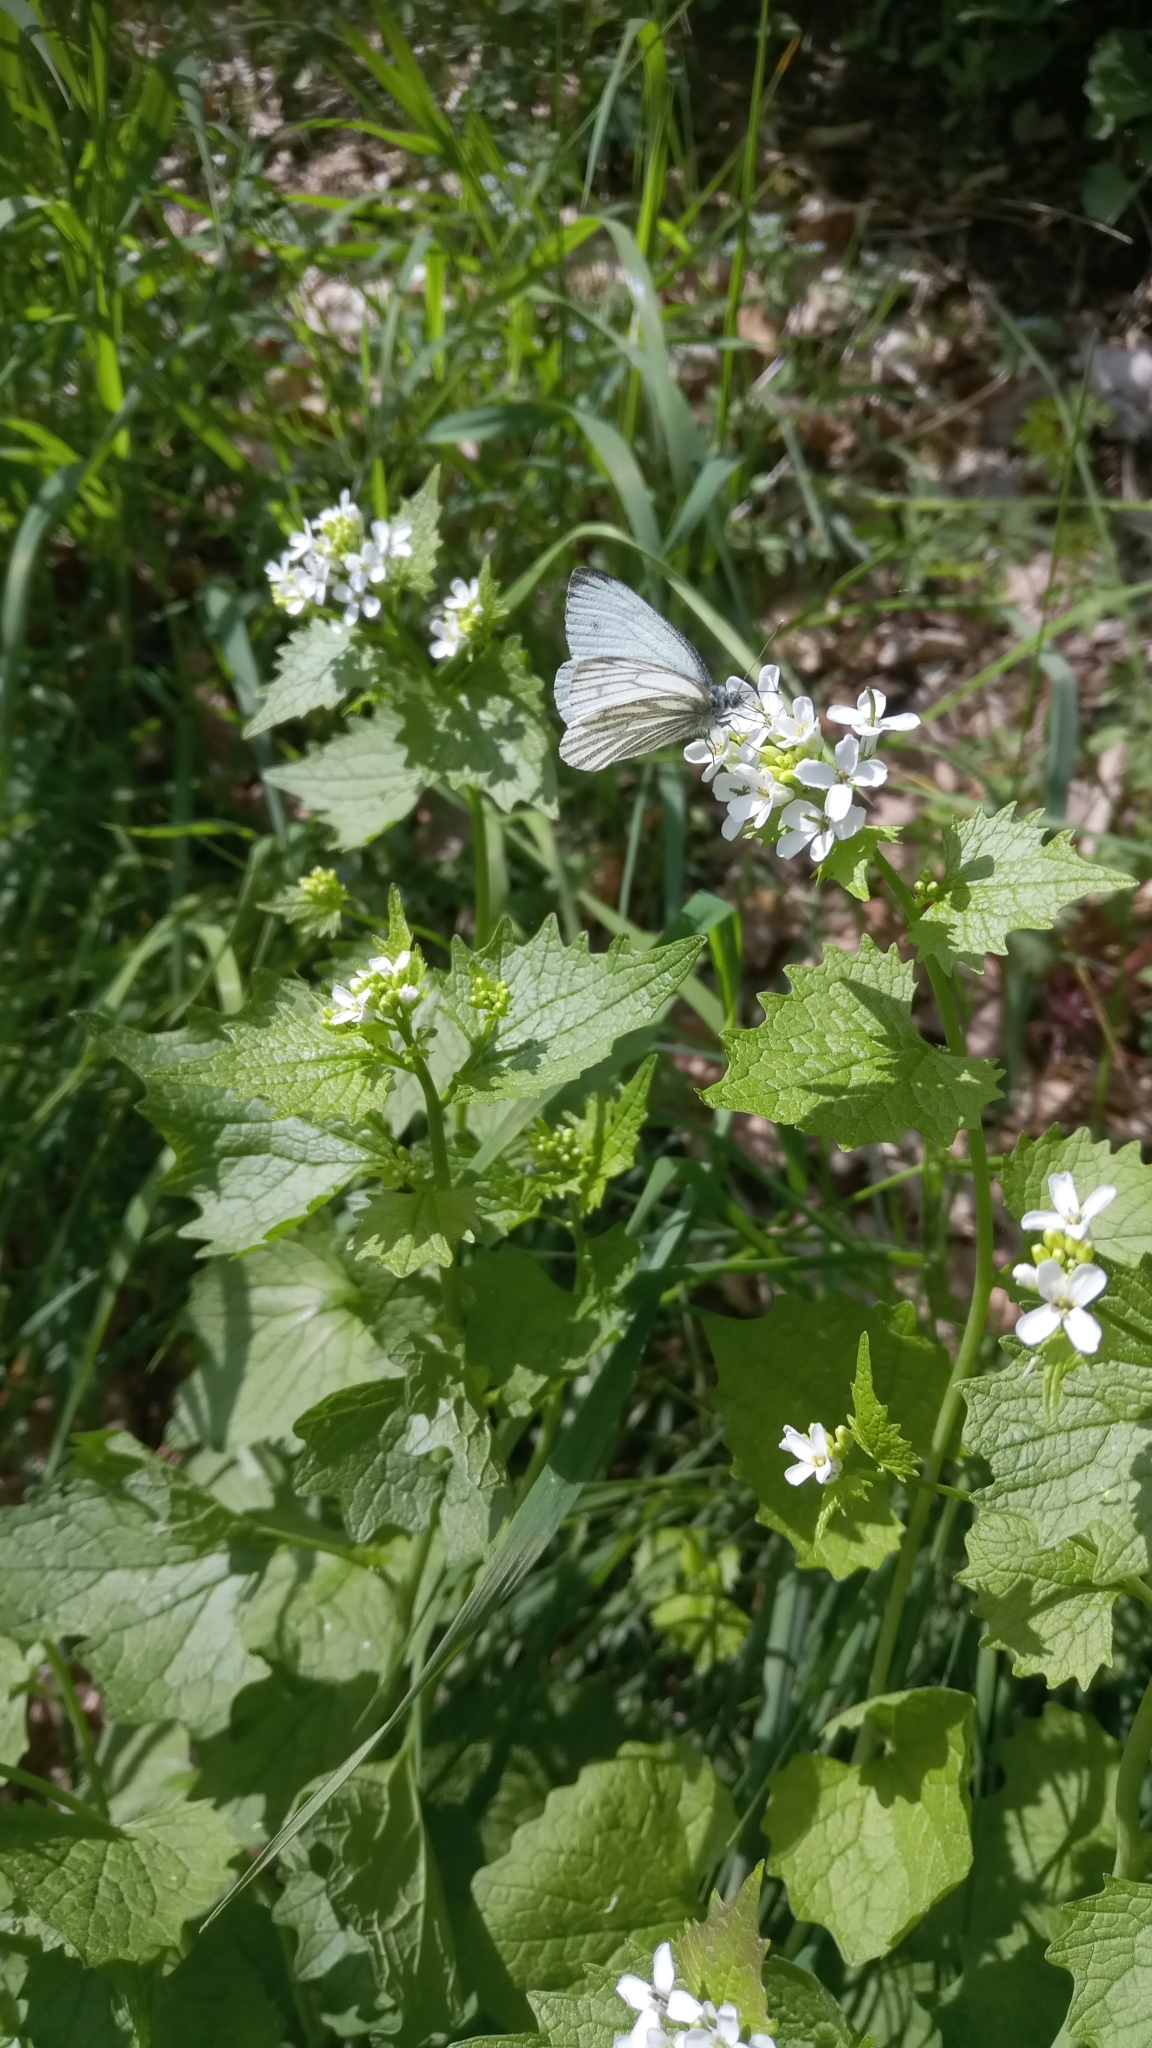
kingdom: Animalia
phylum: Arthropoda
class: Insecta
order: Lepidoptera
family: Pieridae
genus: Pieris
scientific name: Pieris napi
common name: Green-veined white
